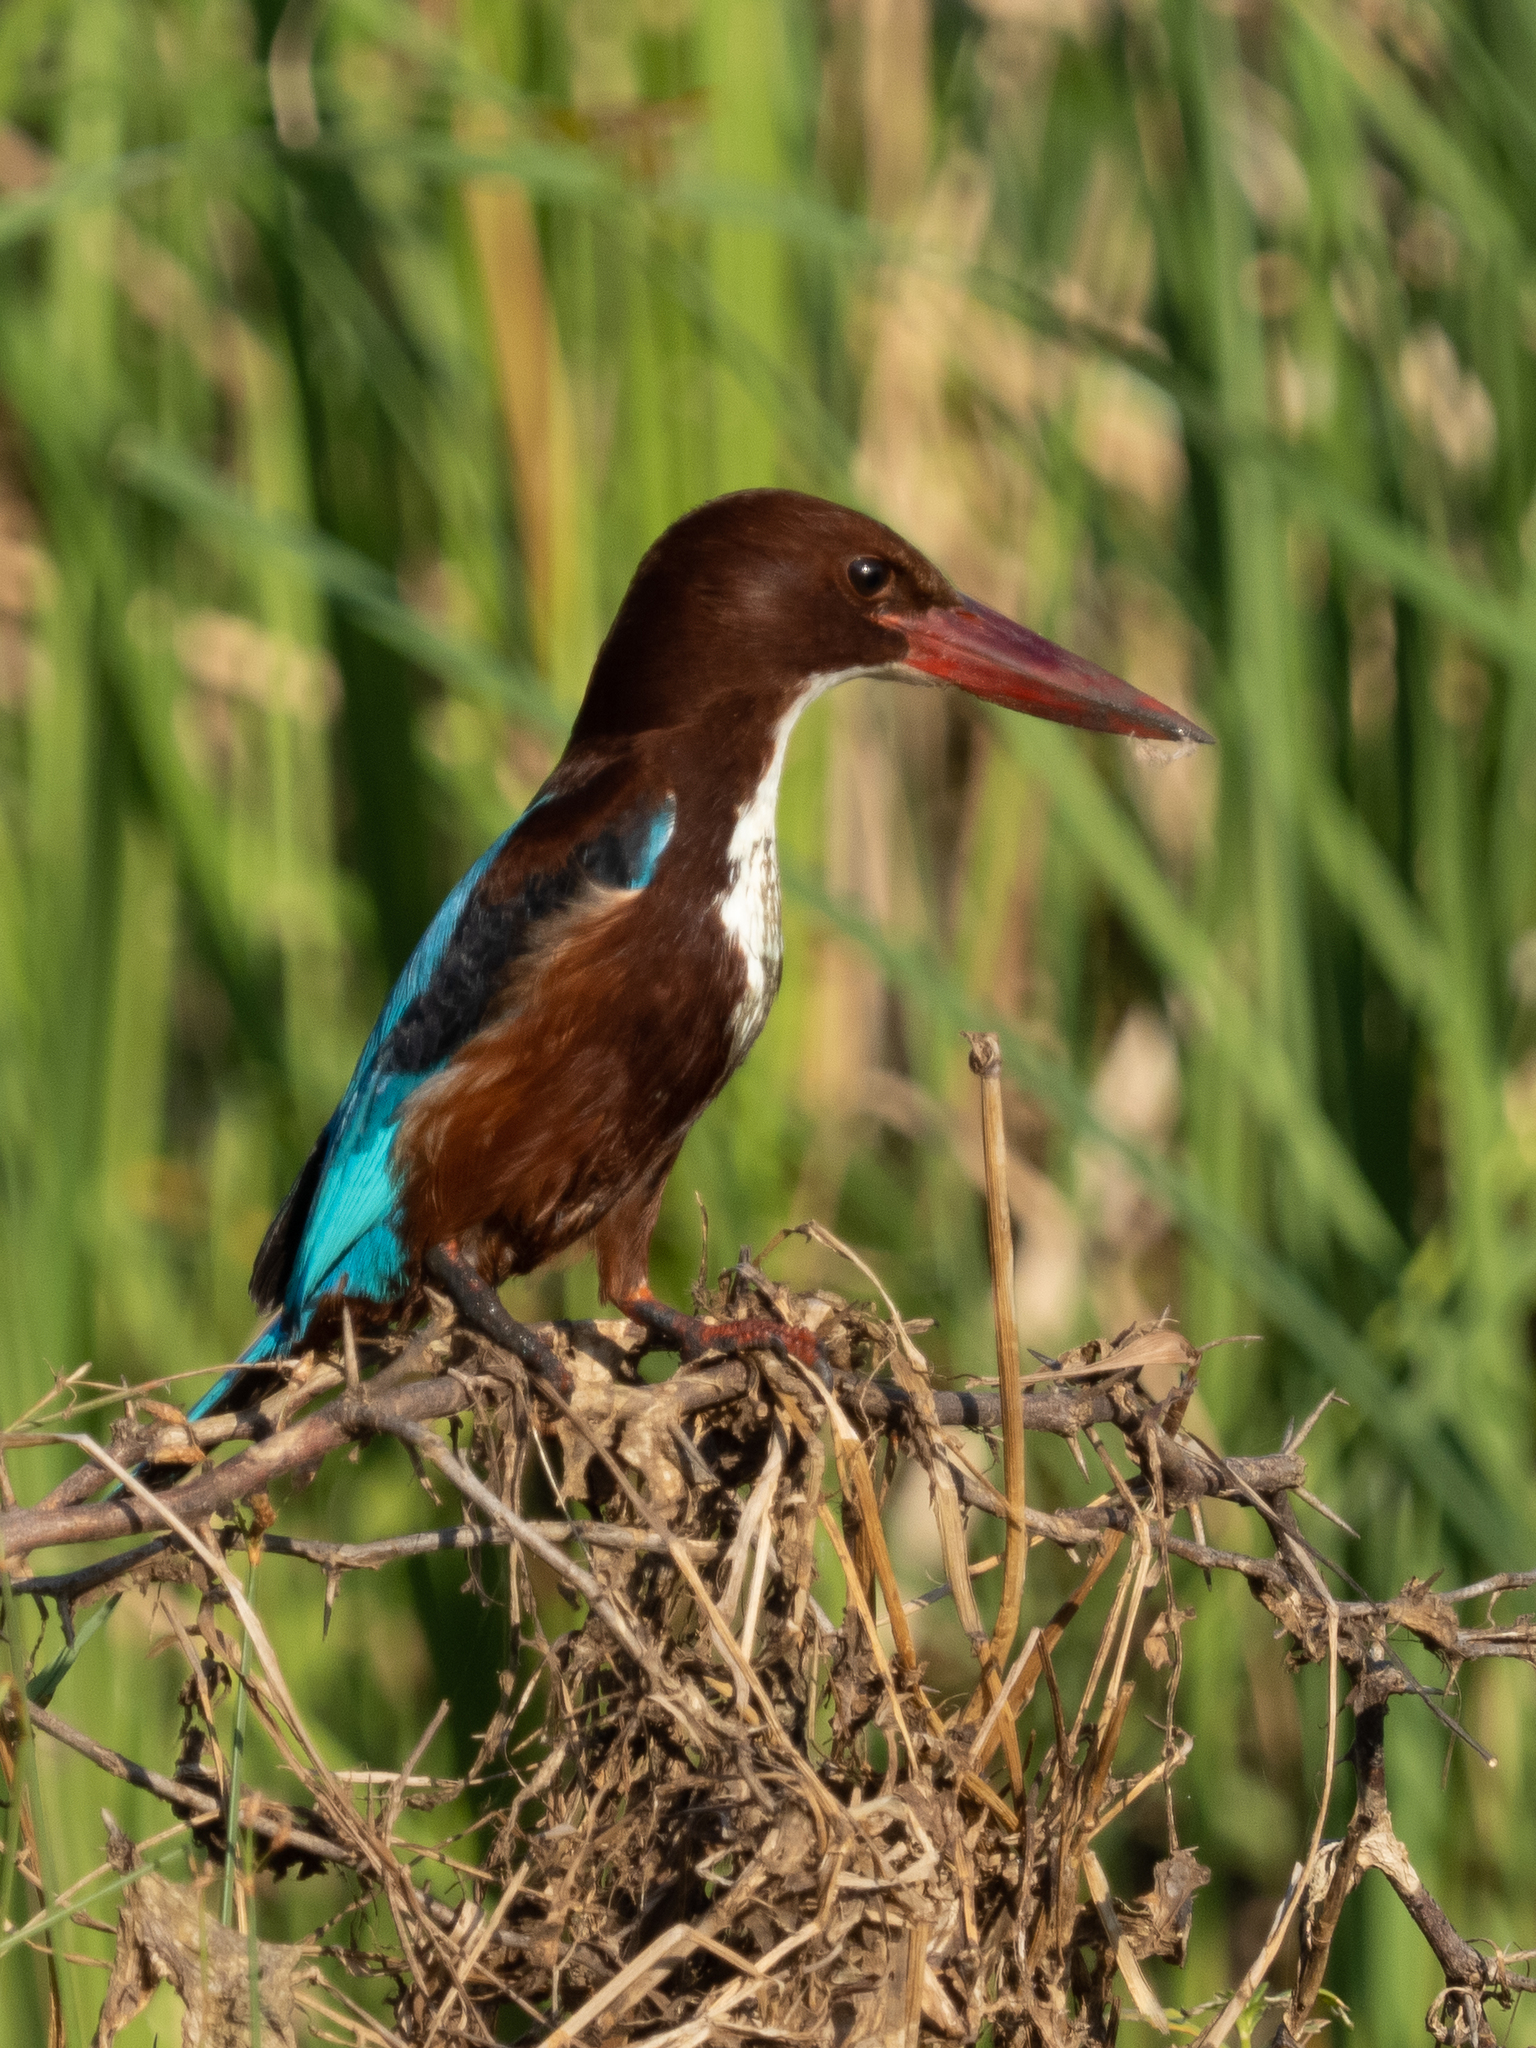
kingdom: Animalia
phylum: Chordata
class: Aves
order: Coraciiformes
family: Alcedinidae
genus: Halcyon
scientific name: Halcyon smyrnensis
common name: White-throated kingfisher
